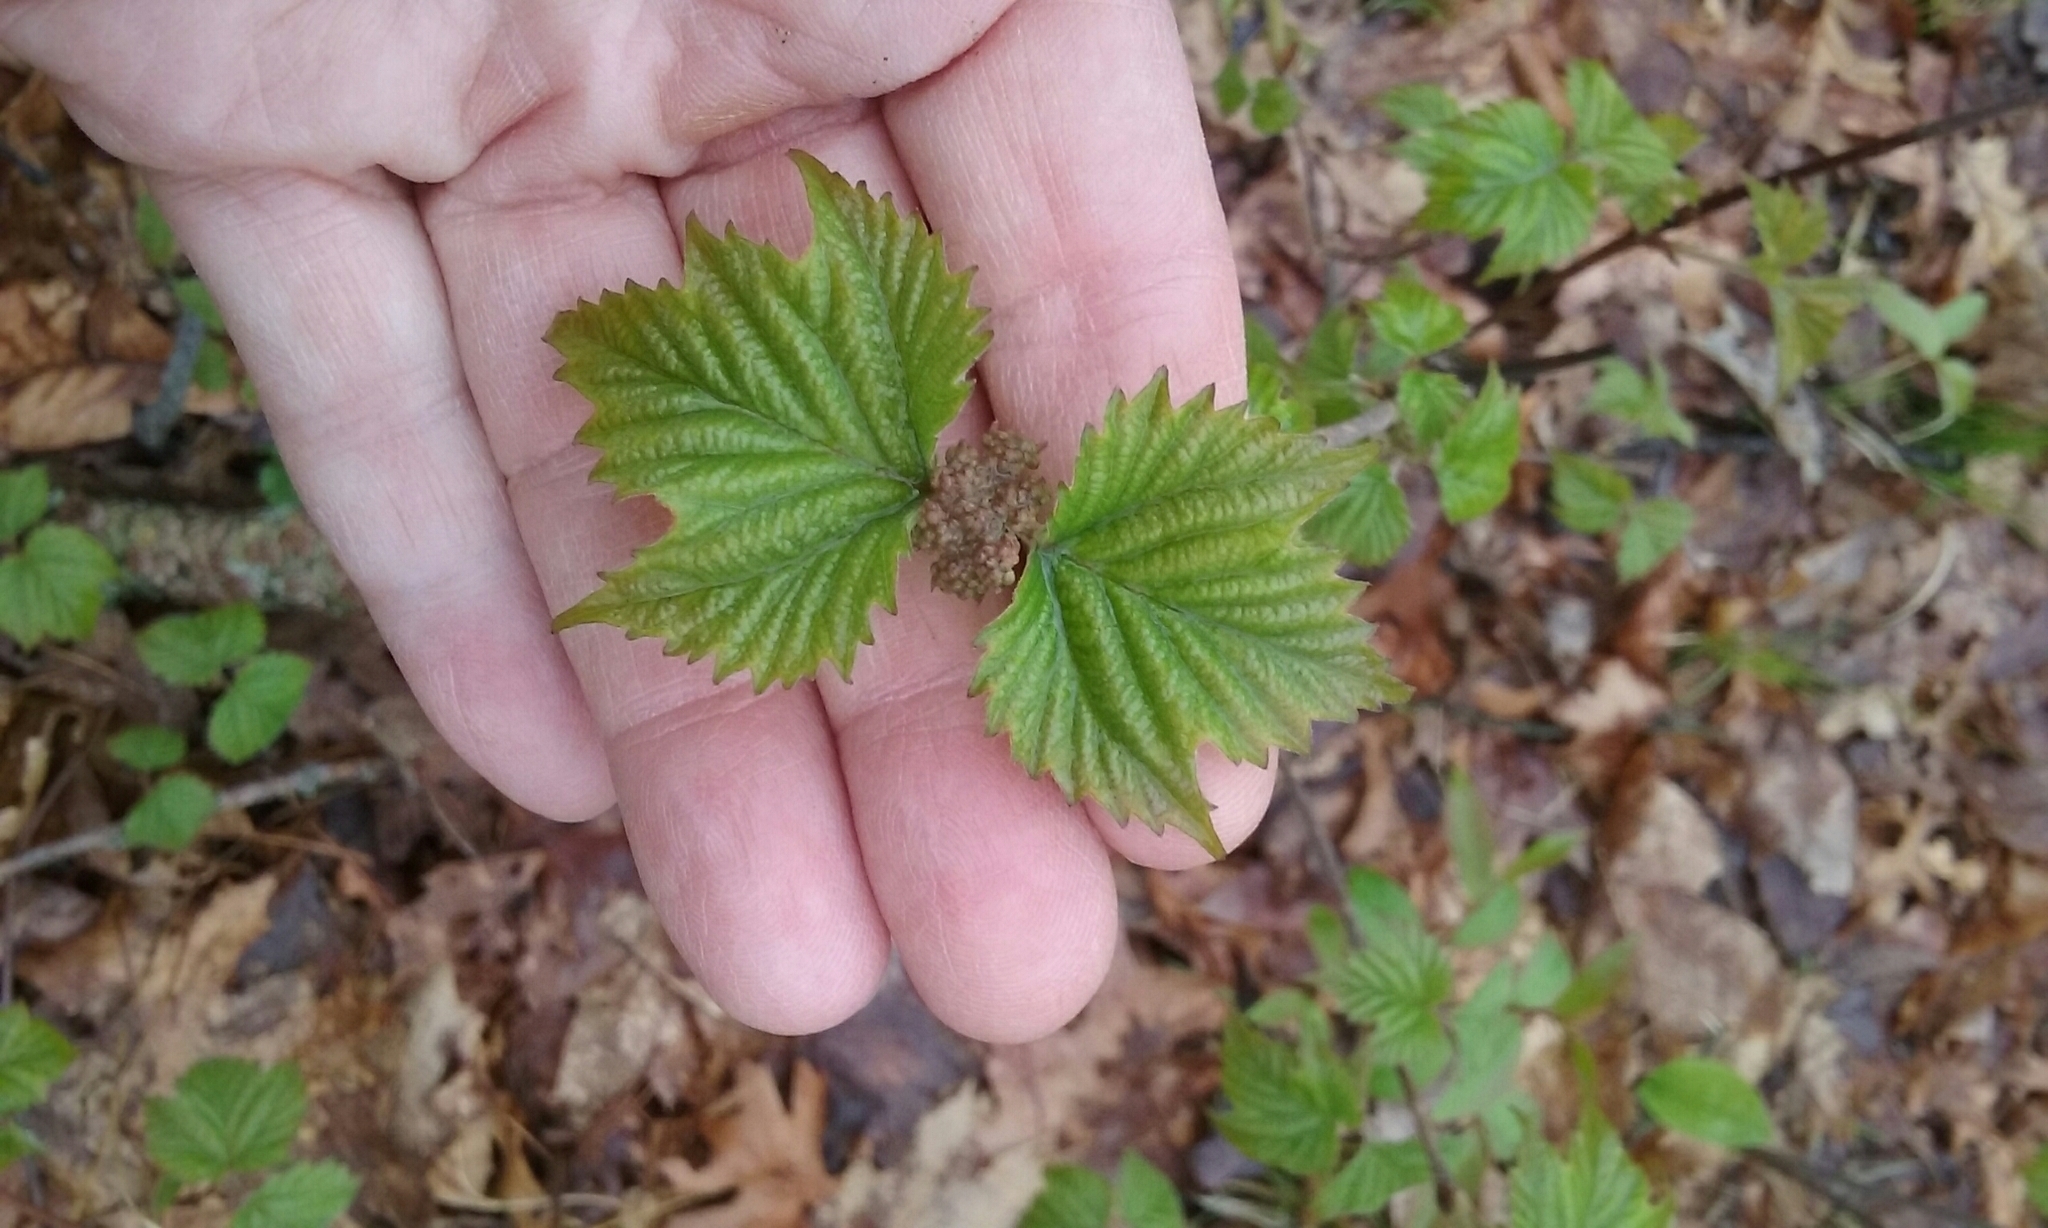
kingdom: Plantae
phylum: Tracheophyta
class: Magnoliopsida
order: Dipsacales
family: Viburnaceae
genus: Viburnum
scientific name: Viburnum acerifolium
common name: Dockmackie
